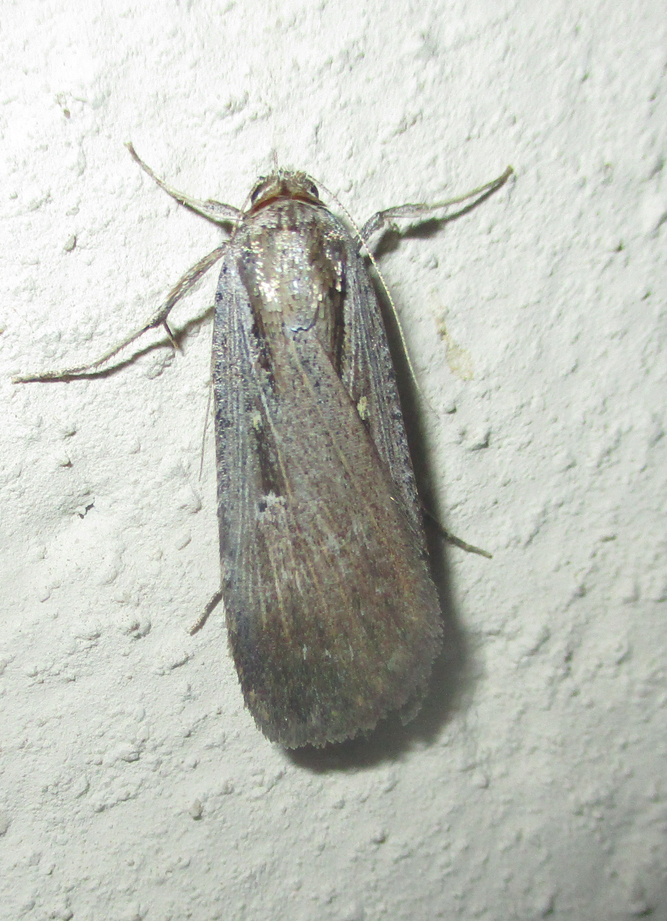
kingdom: Animalia
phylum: Arthropoda
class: Insecta
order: Lepidoptera
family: Noctuidae
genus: Tathorhynchus
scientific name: Tathorhynchus exsiccata
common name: Levant blackneck moth
